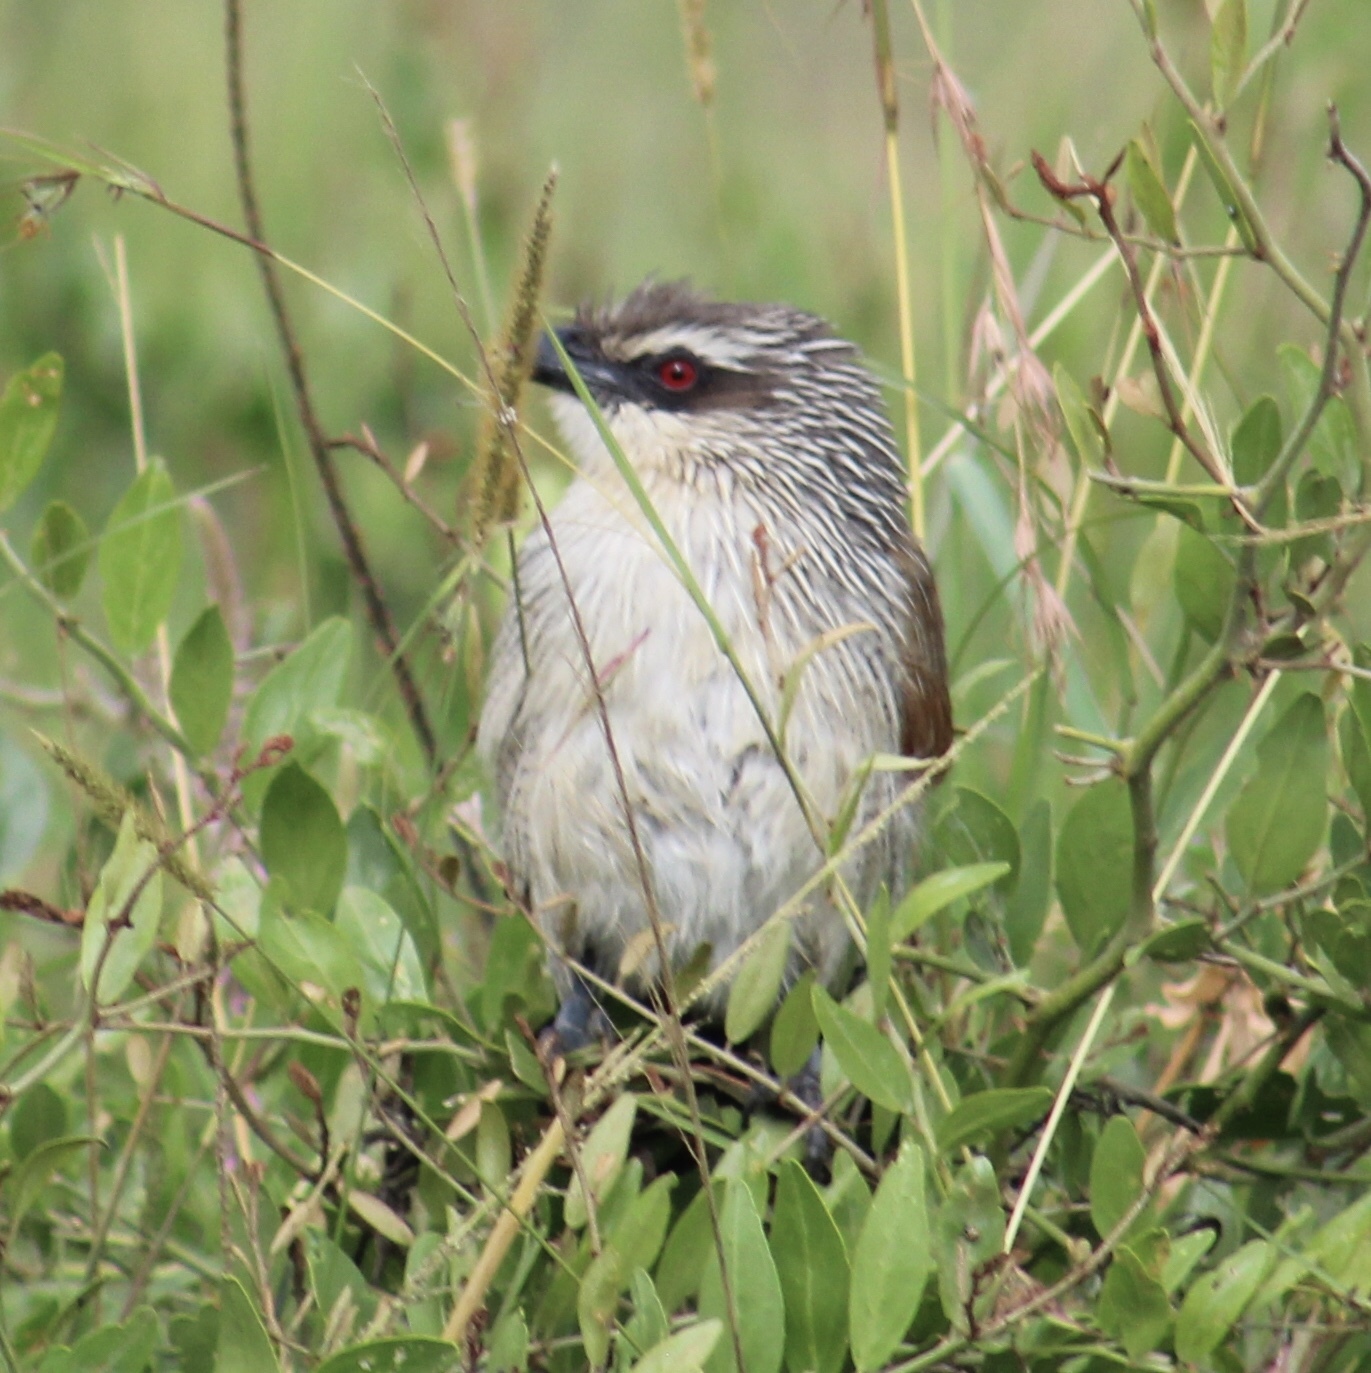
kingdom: Animalia
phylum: Chordata
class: Aves
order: Cuculiformes
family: Cuculidae
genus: Centropus
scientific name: Centropus superciliosus
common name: White-browed coucal
